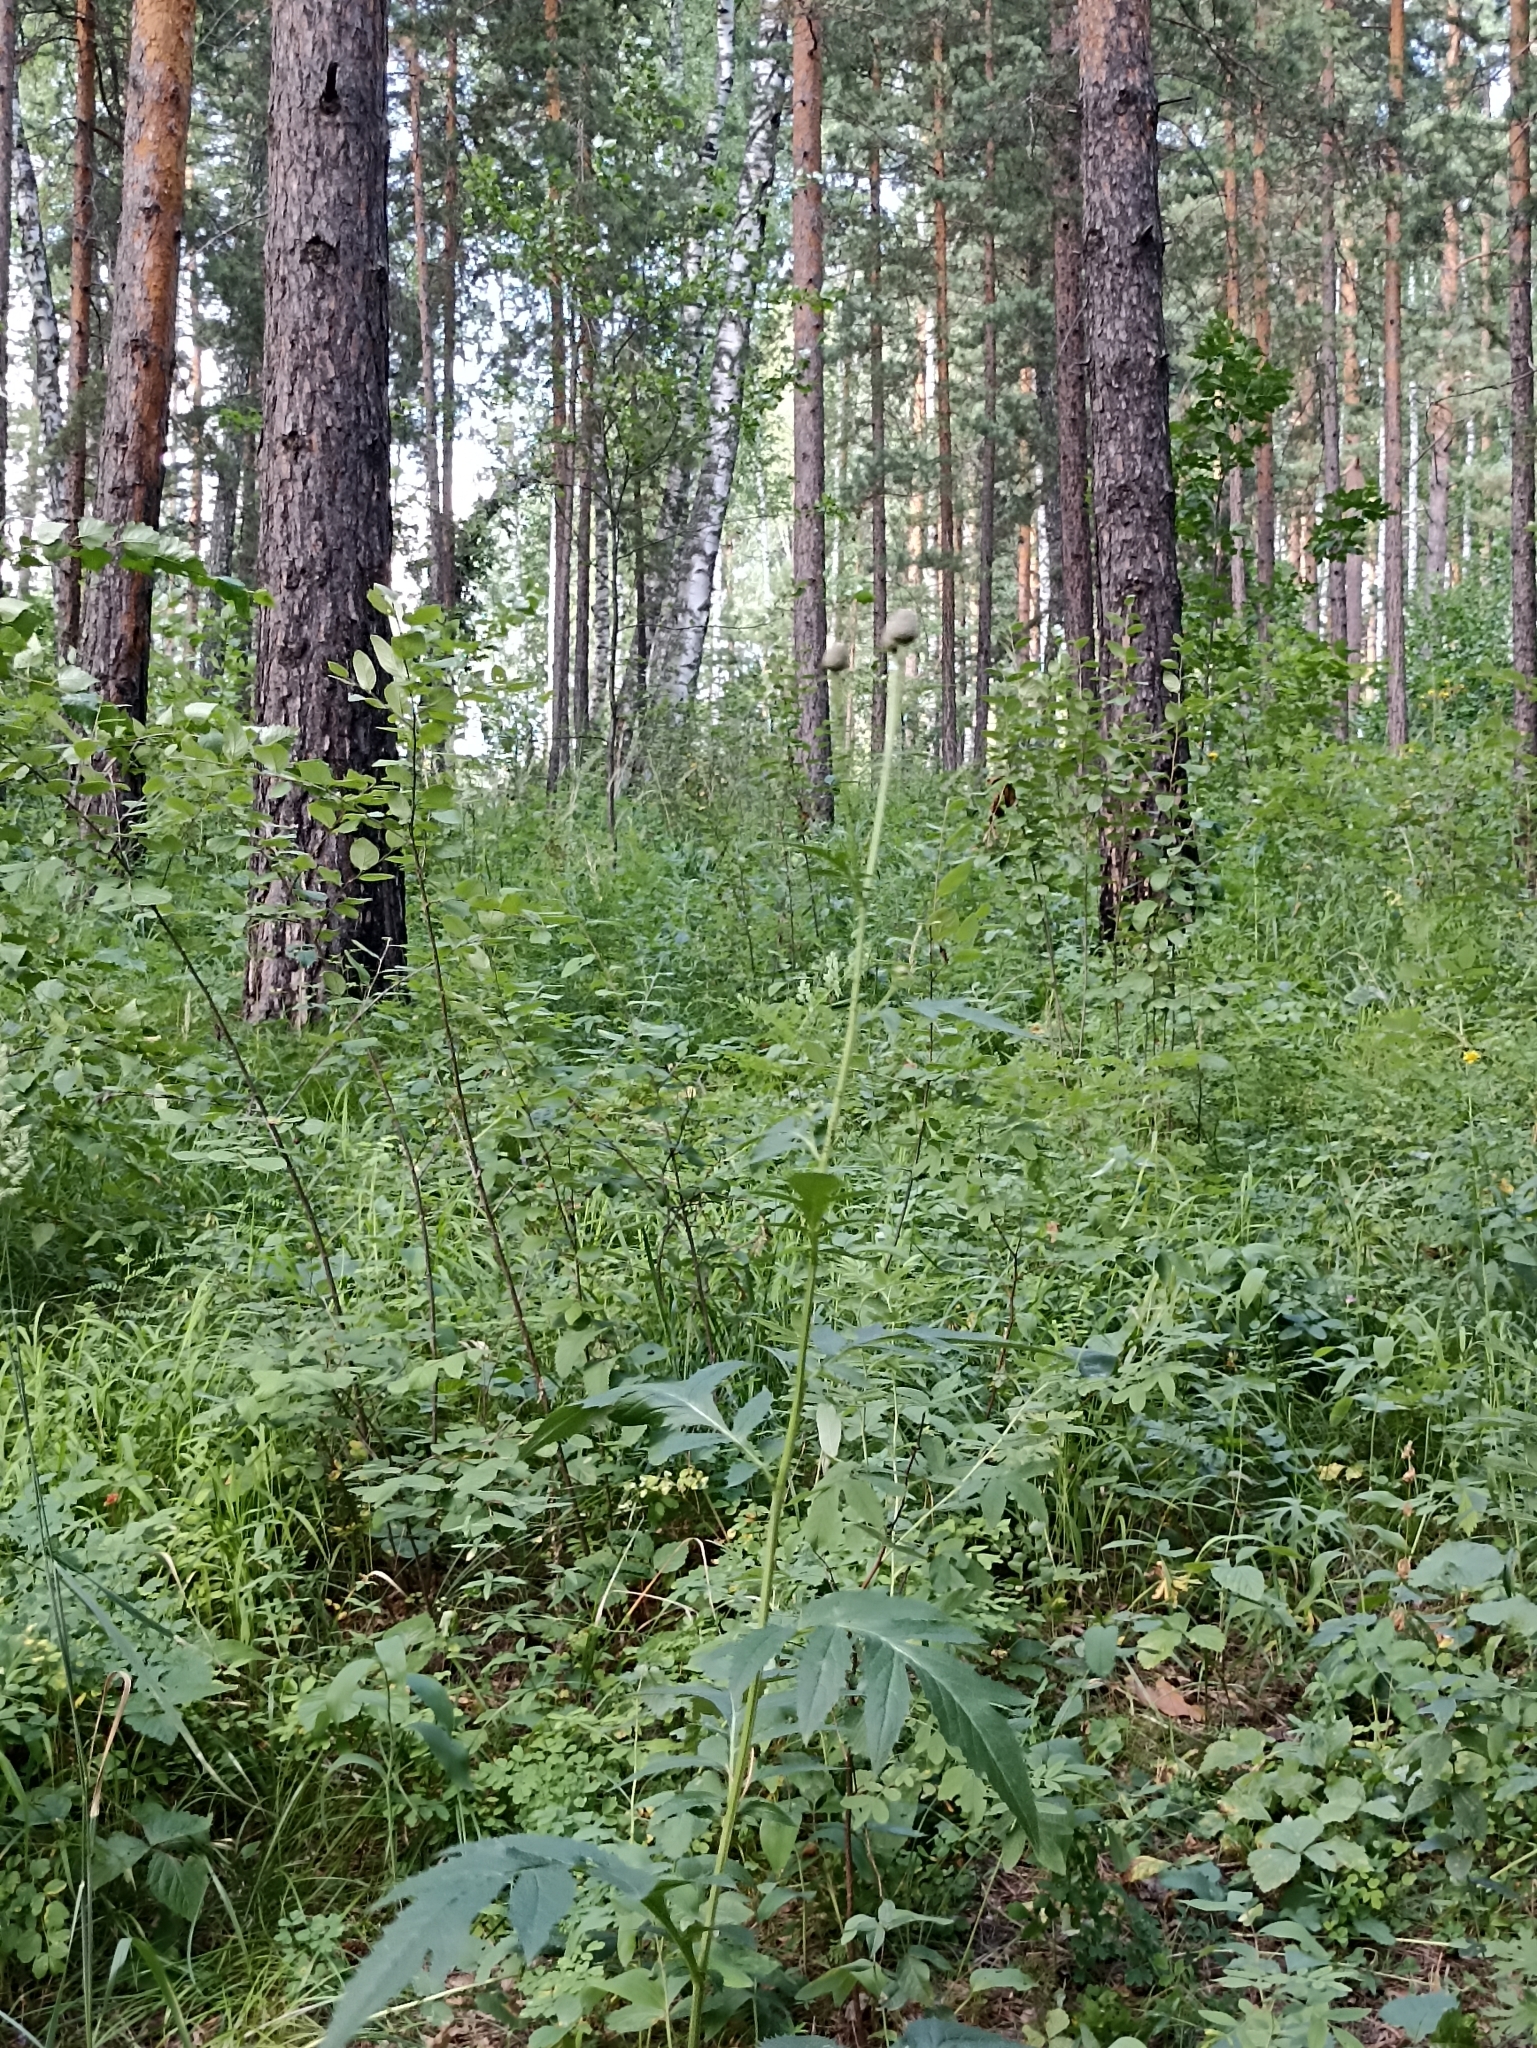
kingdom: Plantae
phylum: Tracheophyta
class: Magnoliopsida
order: Asterales
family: Asteraceae
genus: Serratula
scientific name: Serratula coronata
